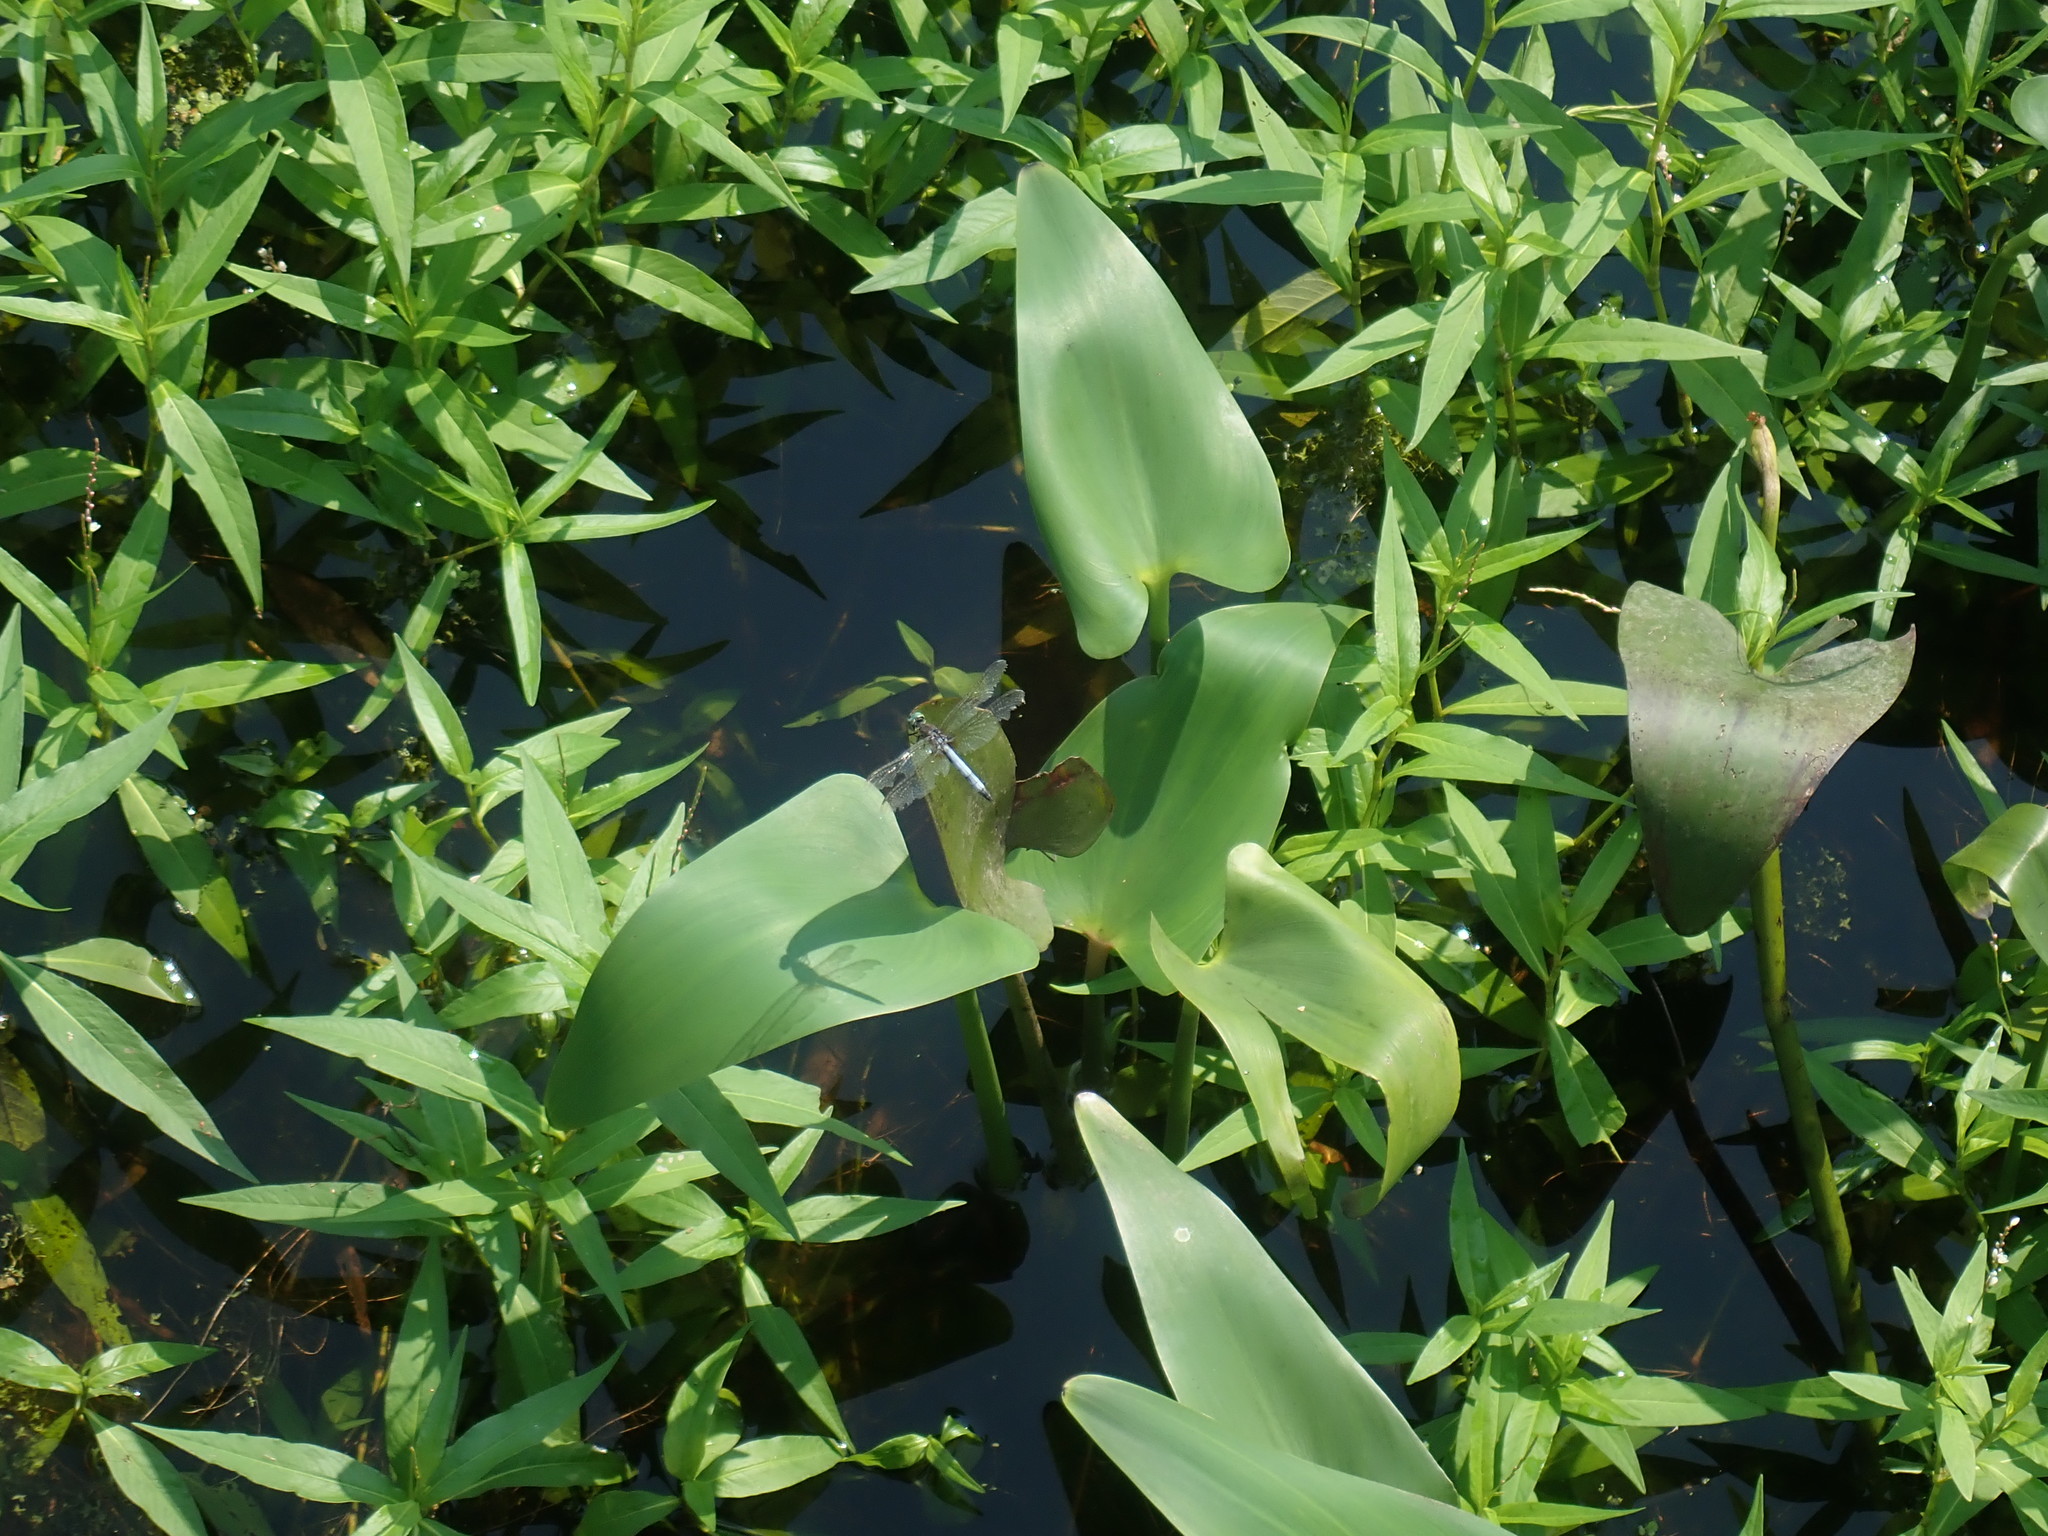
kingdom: Animalia
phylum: Arthropoda
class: Insecta
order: Odonata
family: Libellulidae
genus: Pachydiplax
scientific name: Pachydiplax longipennis
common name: Blue dasher
